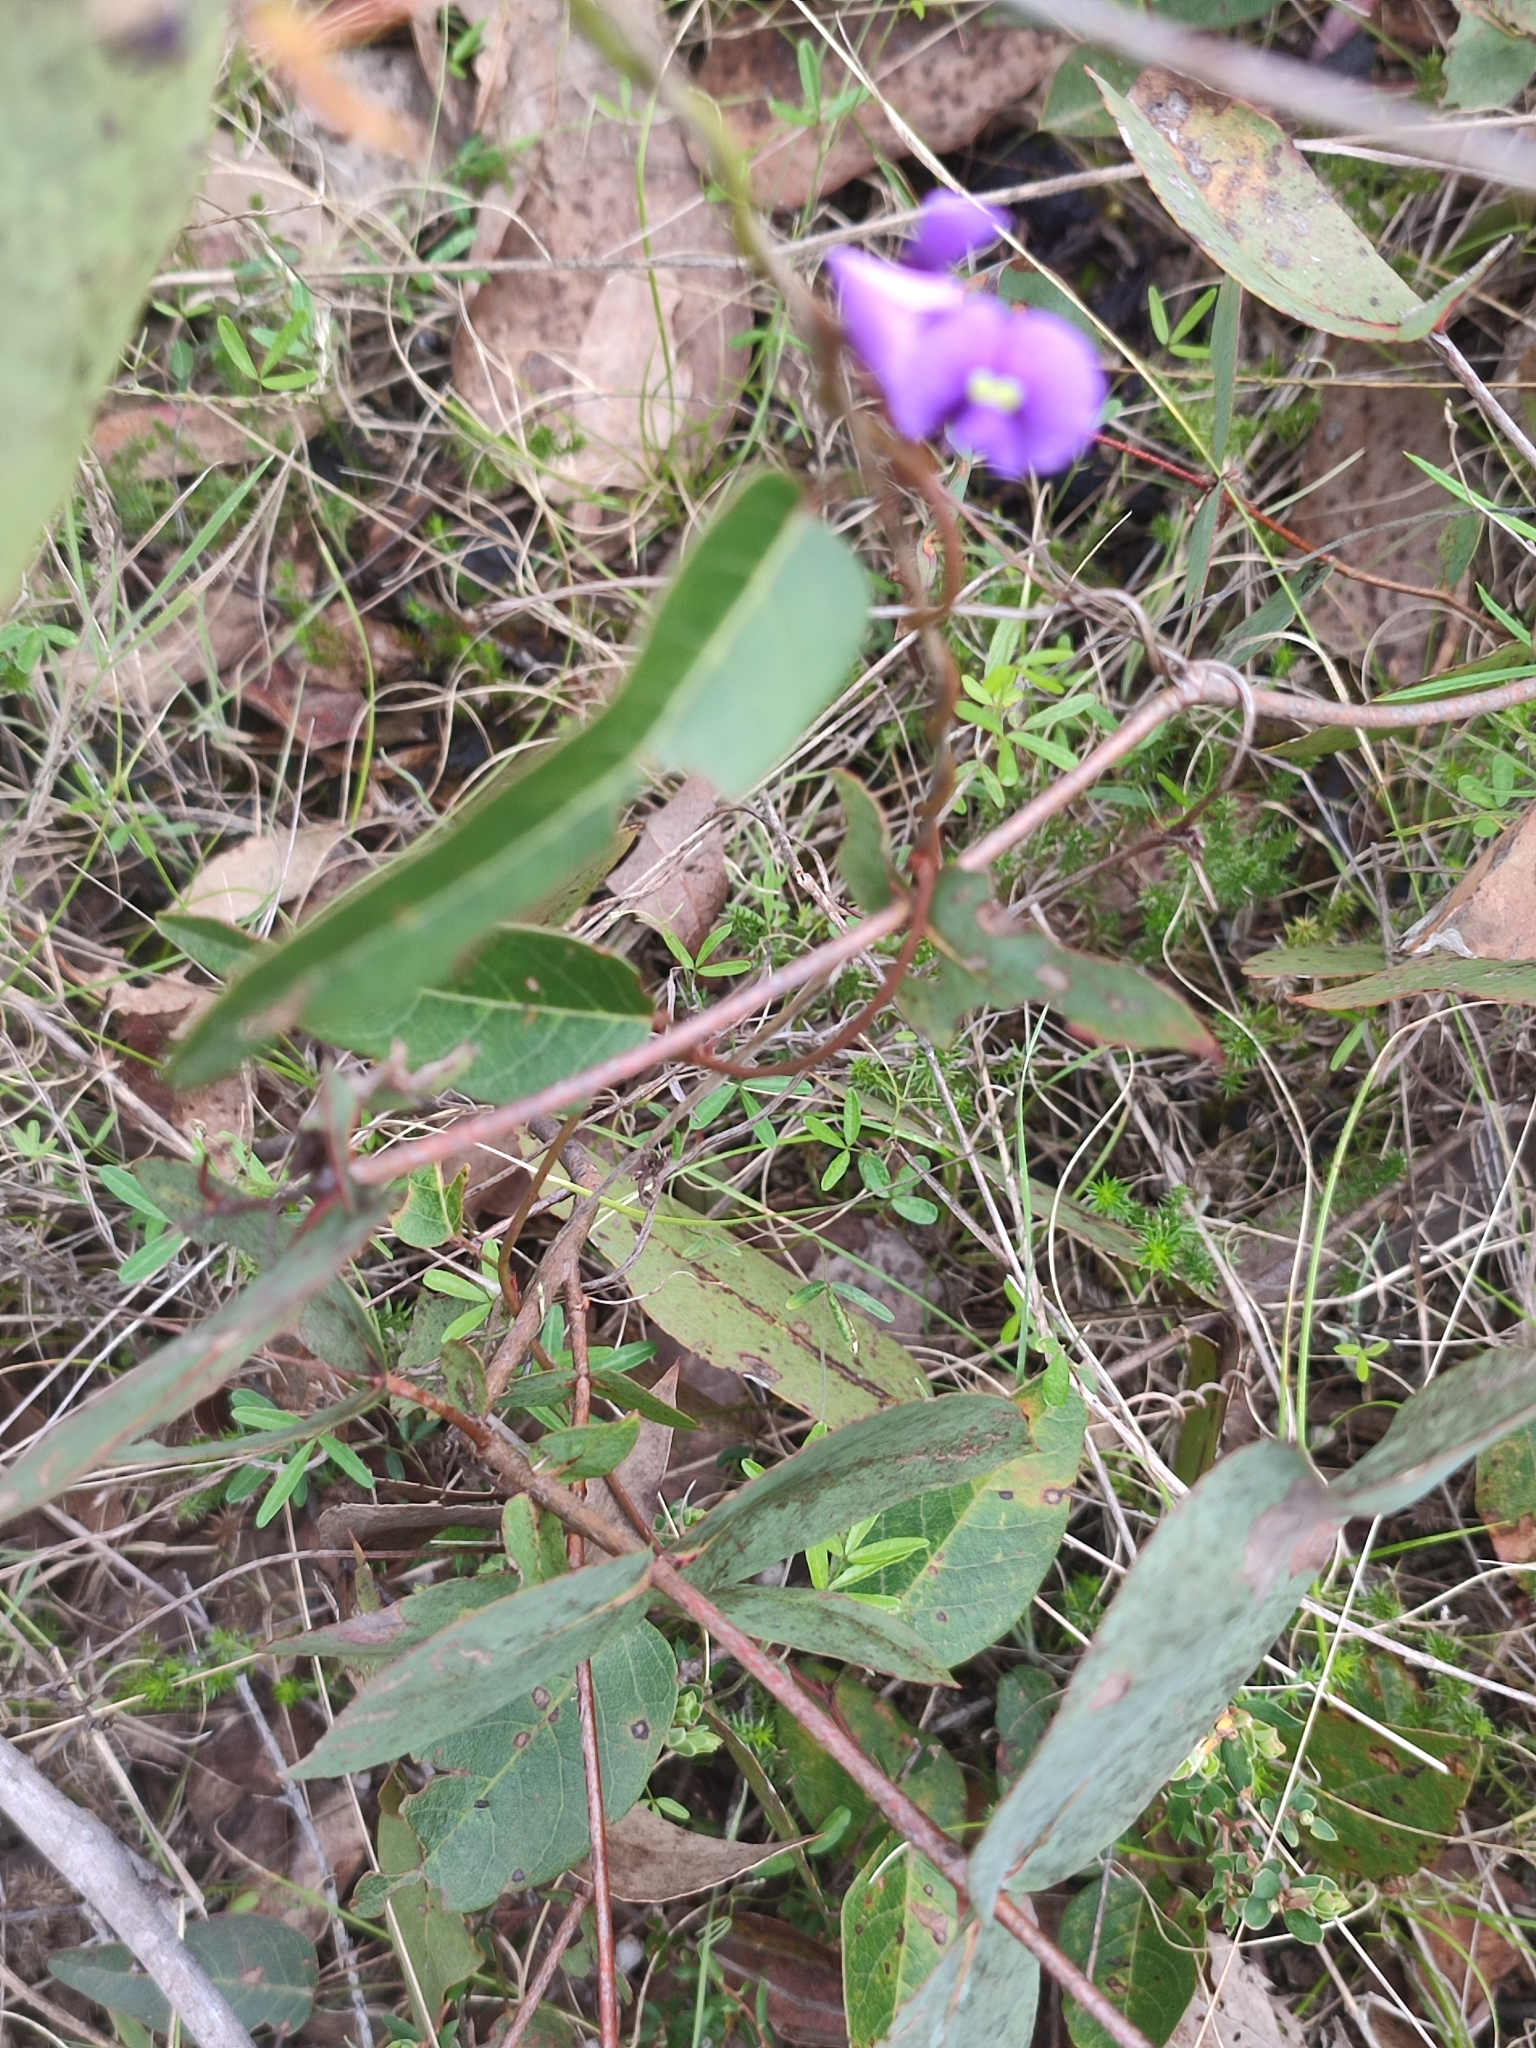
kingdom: Plantae
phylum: Tracheophyta
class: Magnoliopsida
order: Fabales
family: Fabaceae
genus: Hardenbergia
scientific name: Hardenbergia violacea
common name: Coral-pea
